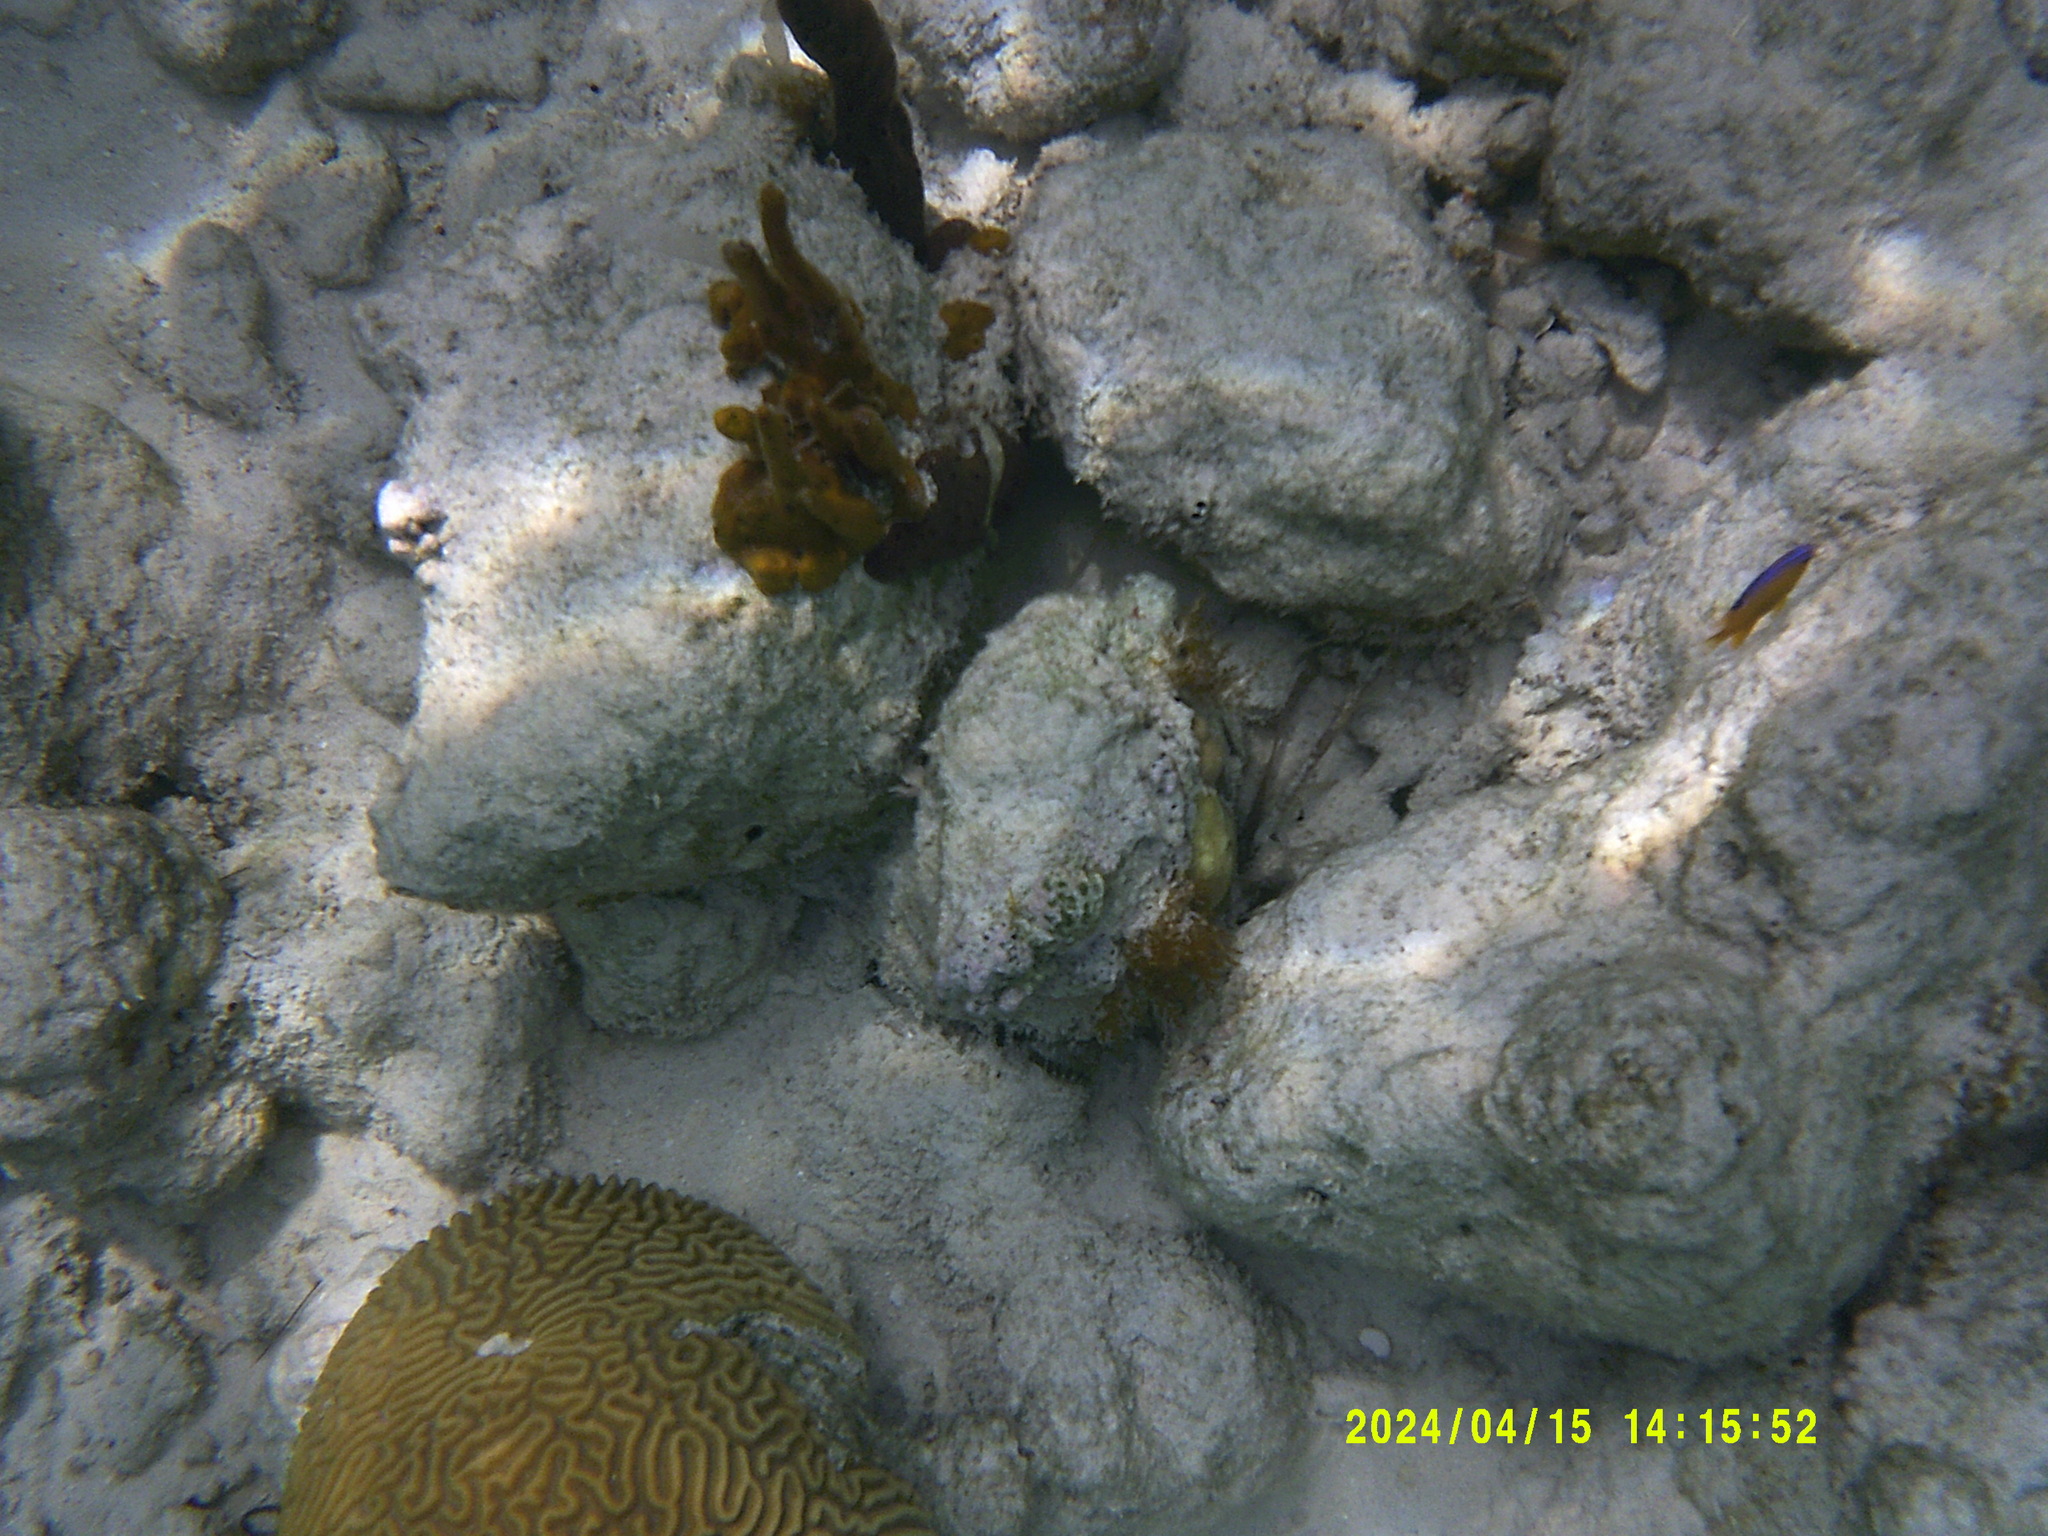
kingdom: Animalia
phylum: Porifera
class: Demospongiae
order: Verongiida
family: Aplysinidae
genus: Aplysina
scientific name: Aplysina fulva
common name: Scattered pore rope sponge
